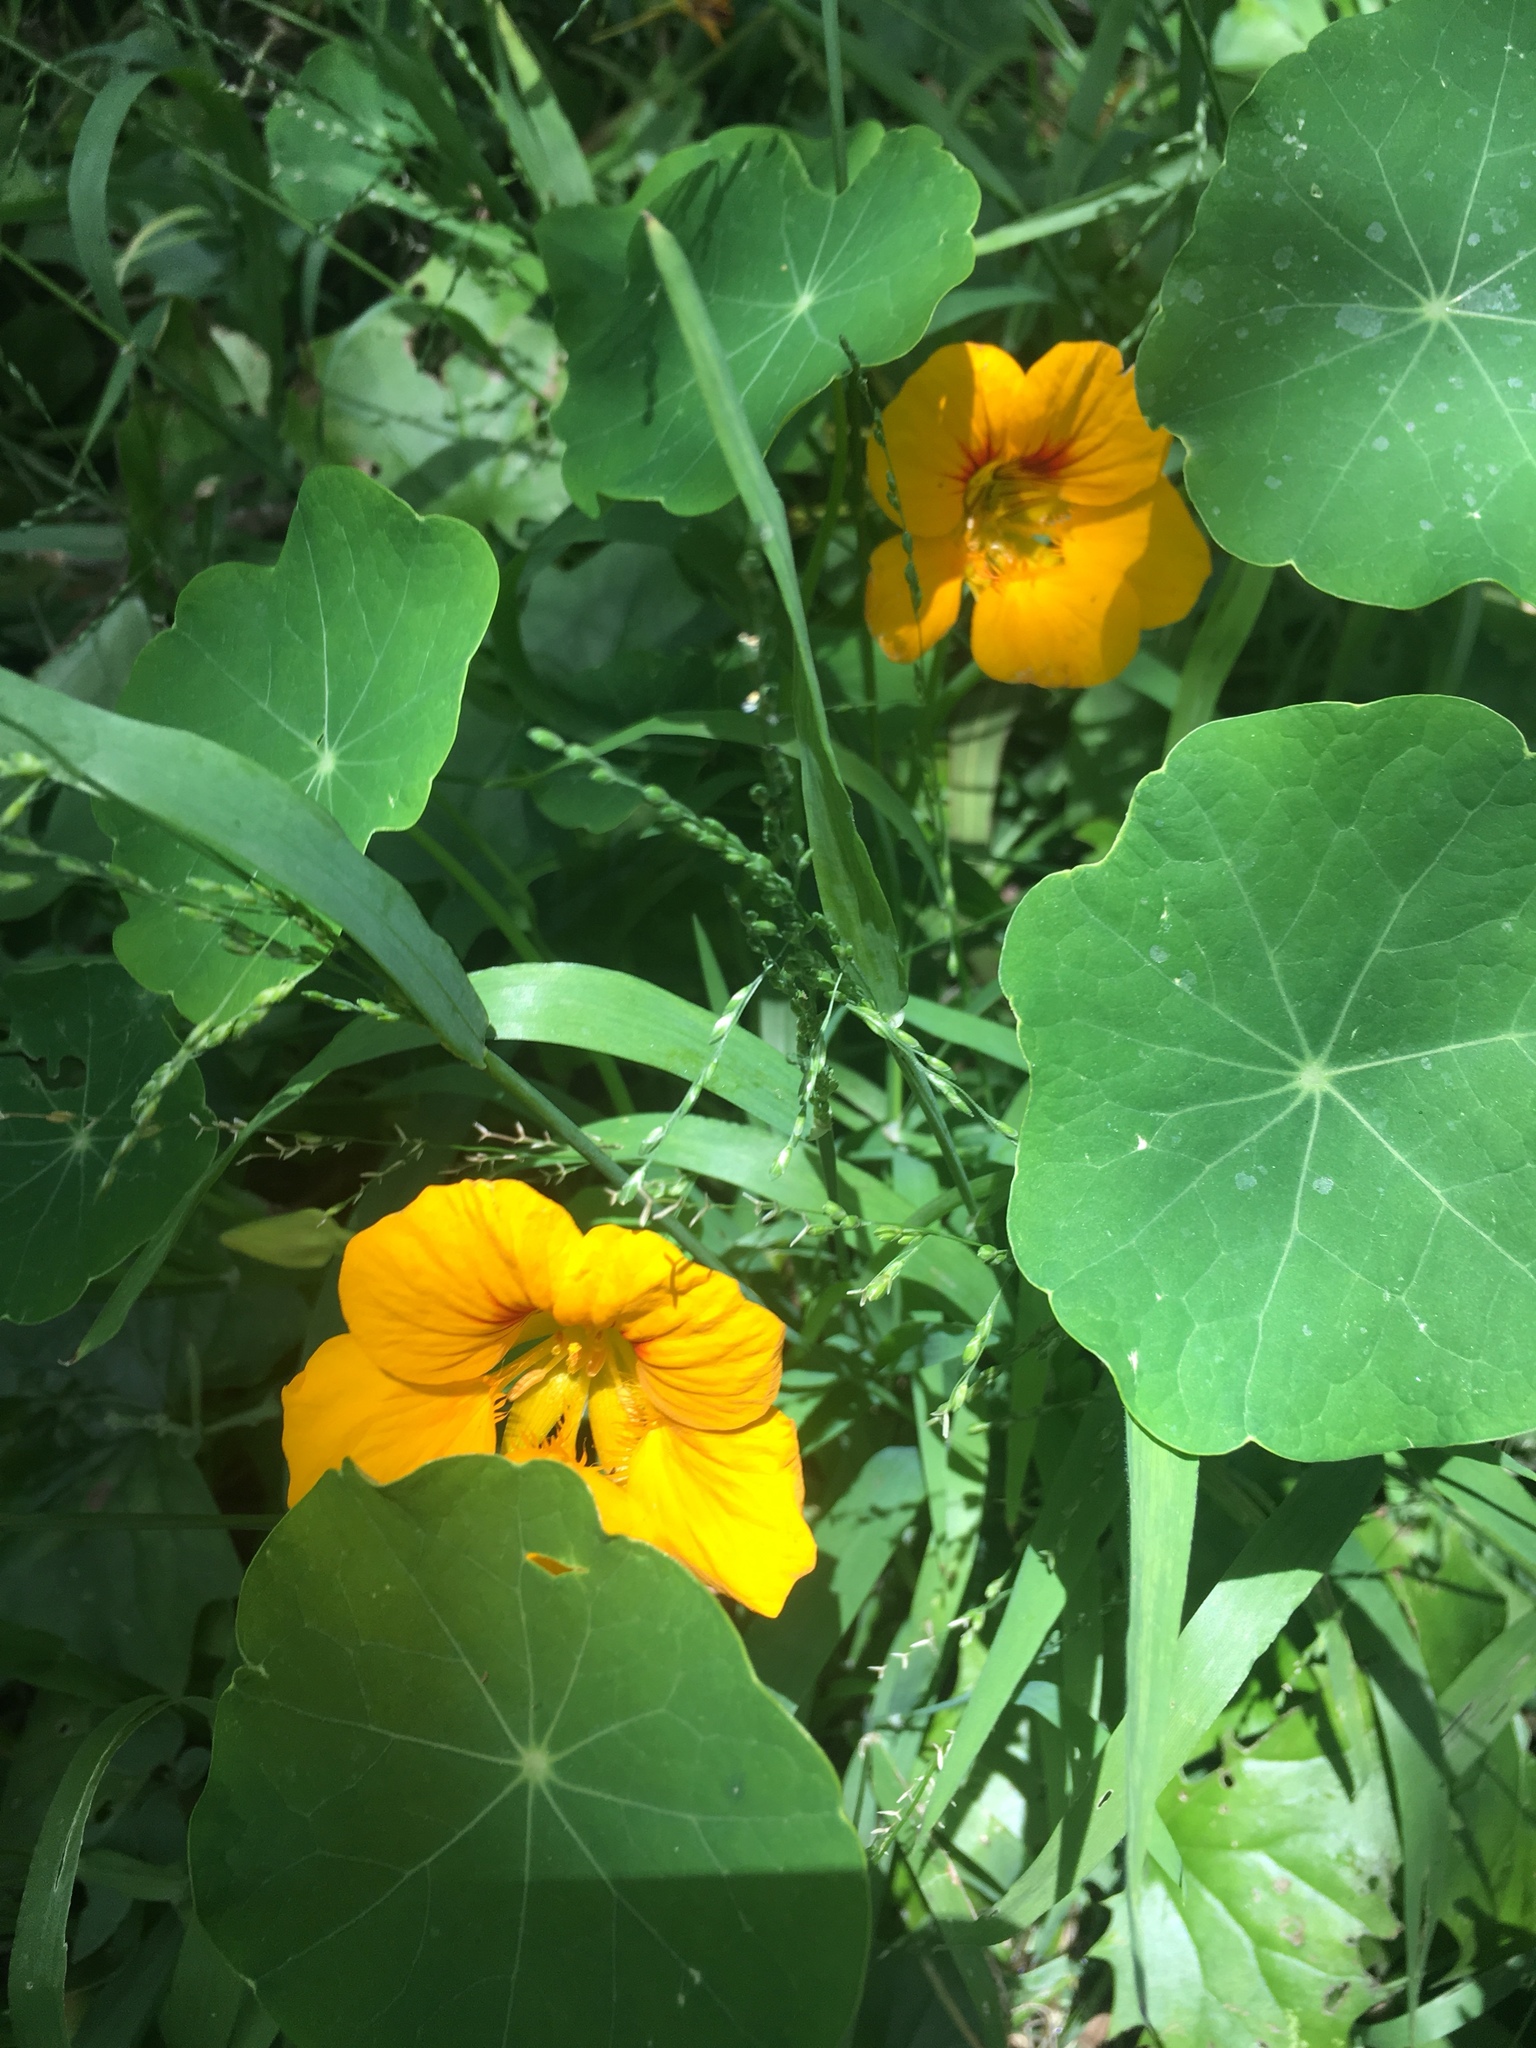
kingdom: Plantae
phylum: Tracheophyta
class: Magnoliopsida
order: Brassicales
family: Tropaeolaceae
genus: Tropaeolum
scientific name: Tropaeolum majus
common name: Nasturtium
